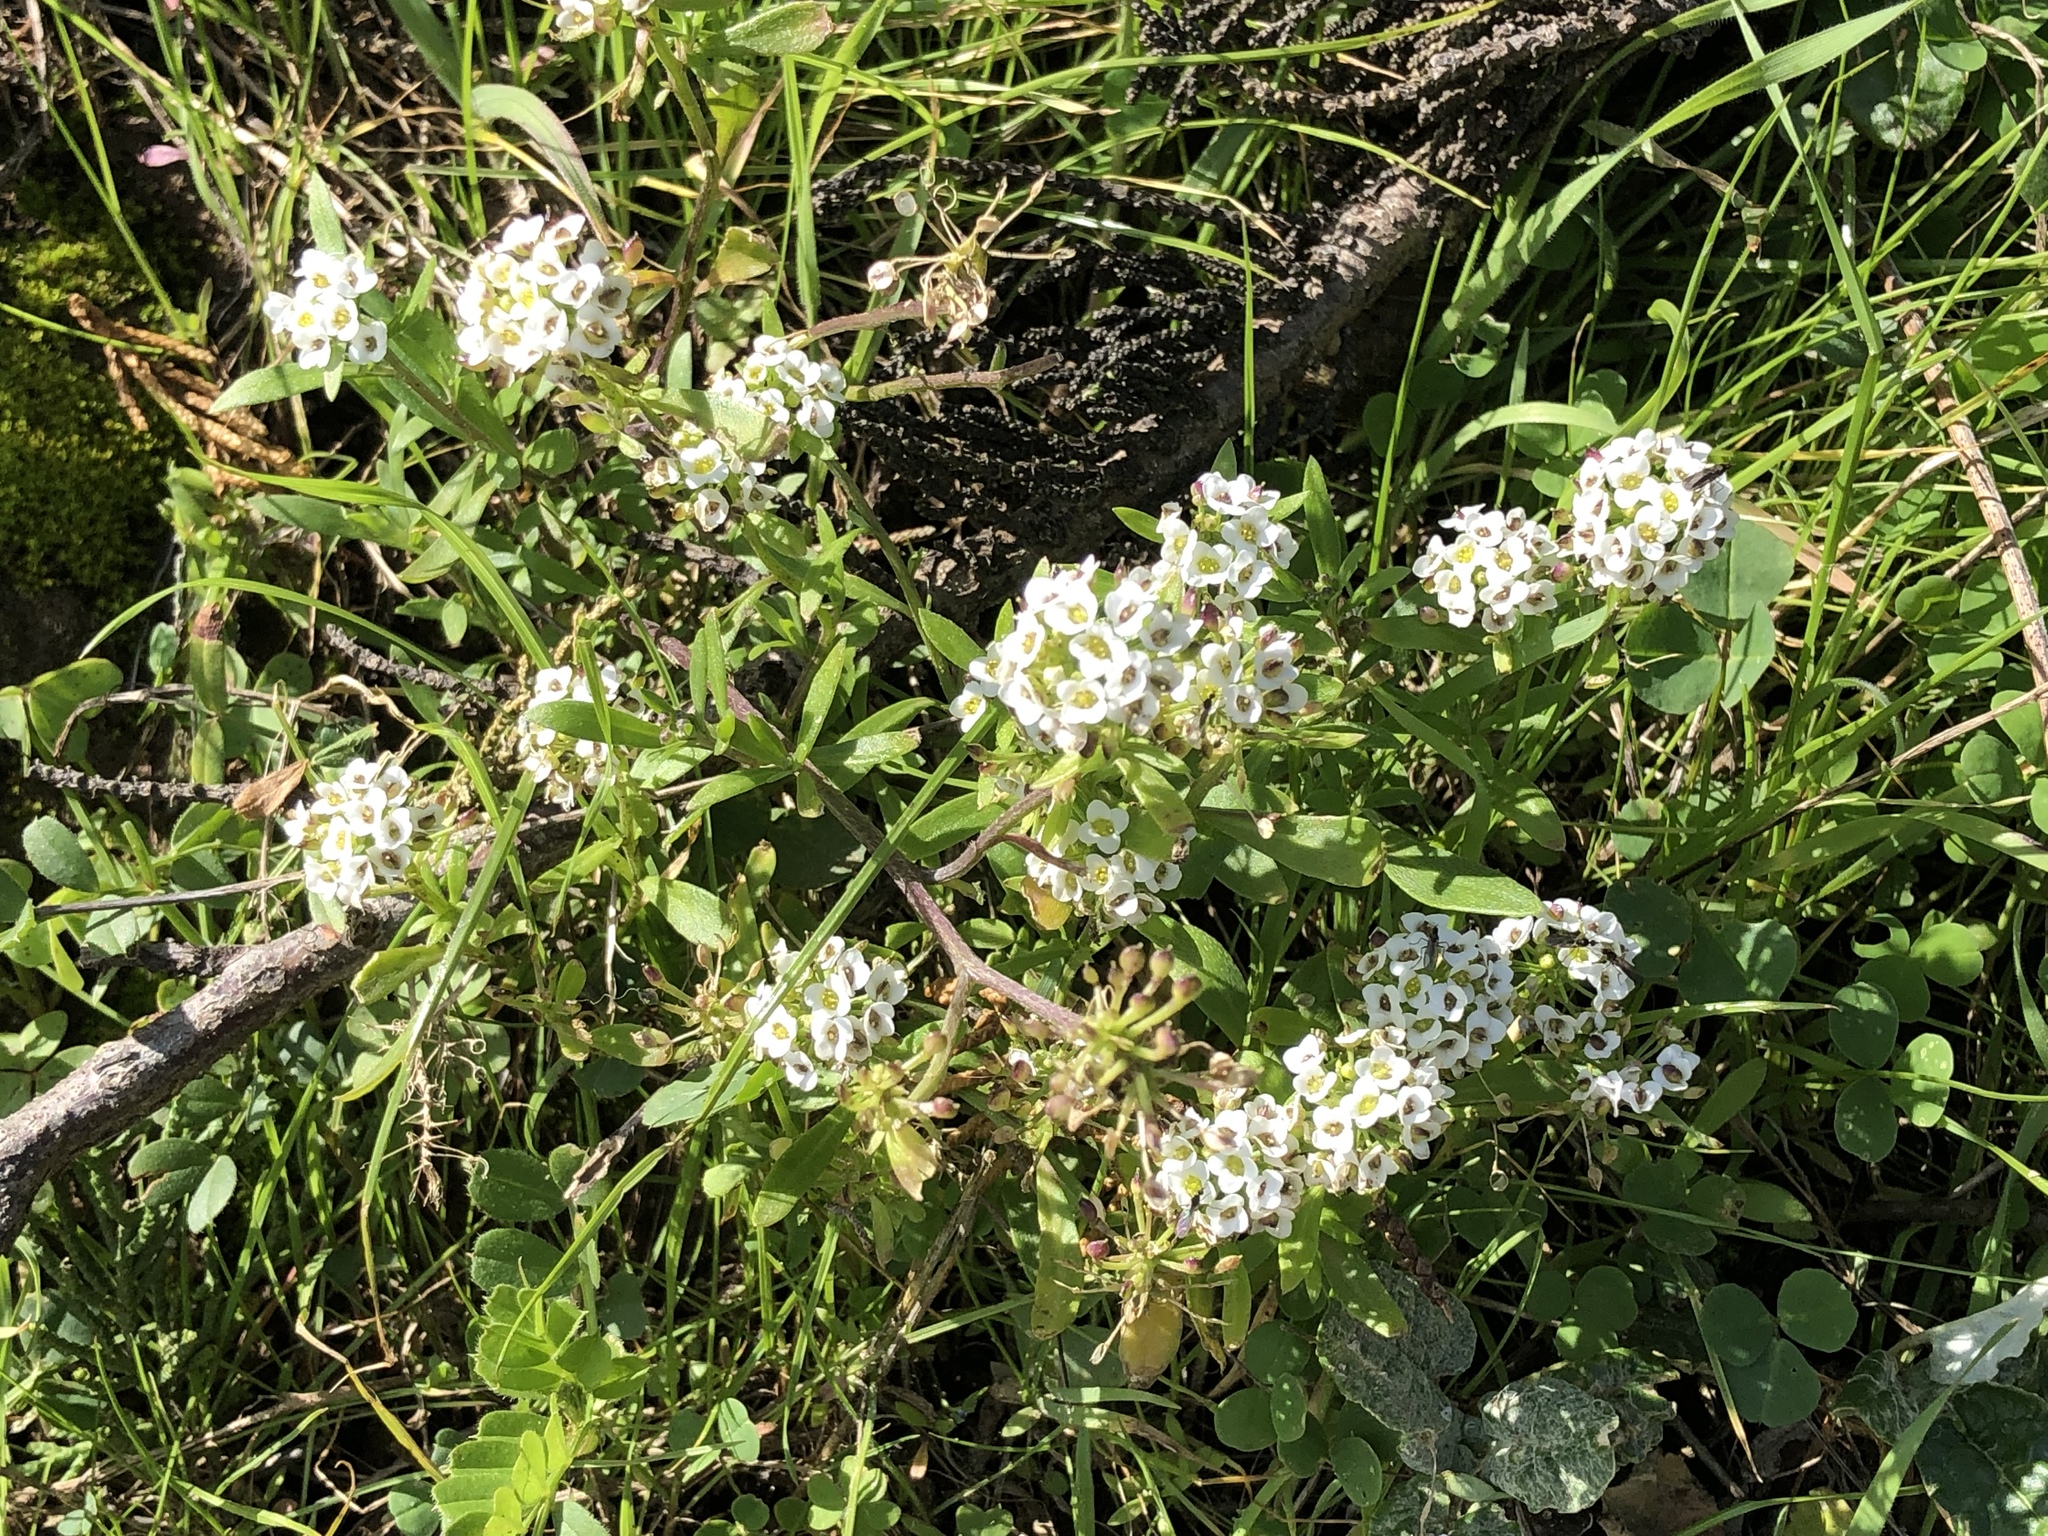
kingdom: Plantae
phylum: Tracheophyta
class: Magnoliopsida
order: Brassicales
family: Brassicaceae
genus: Lobularia
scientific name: Lobularia maritima
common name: Sweet alison
